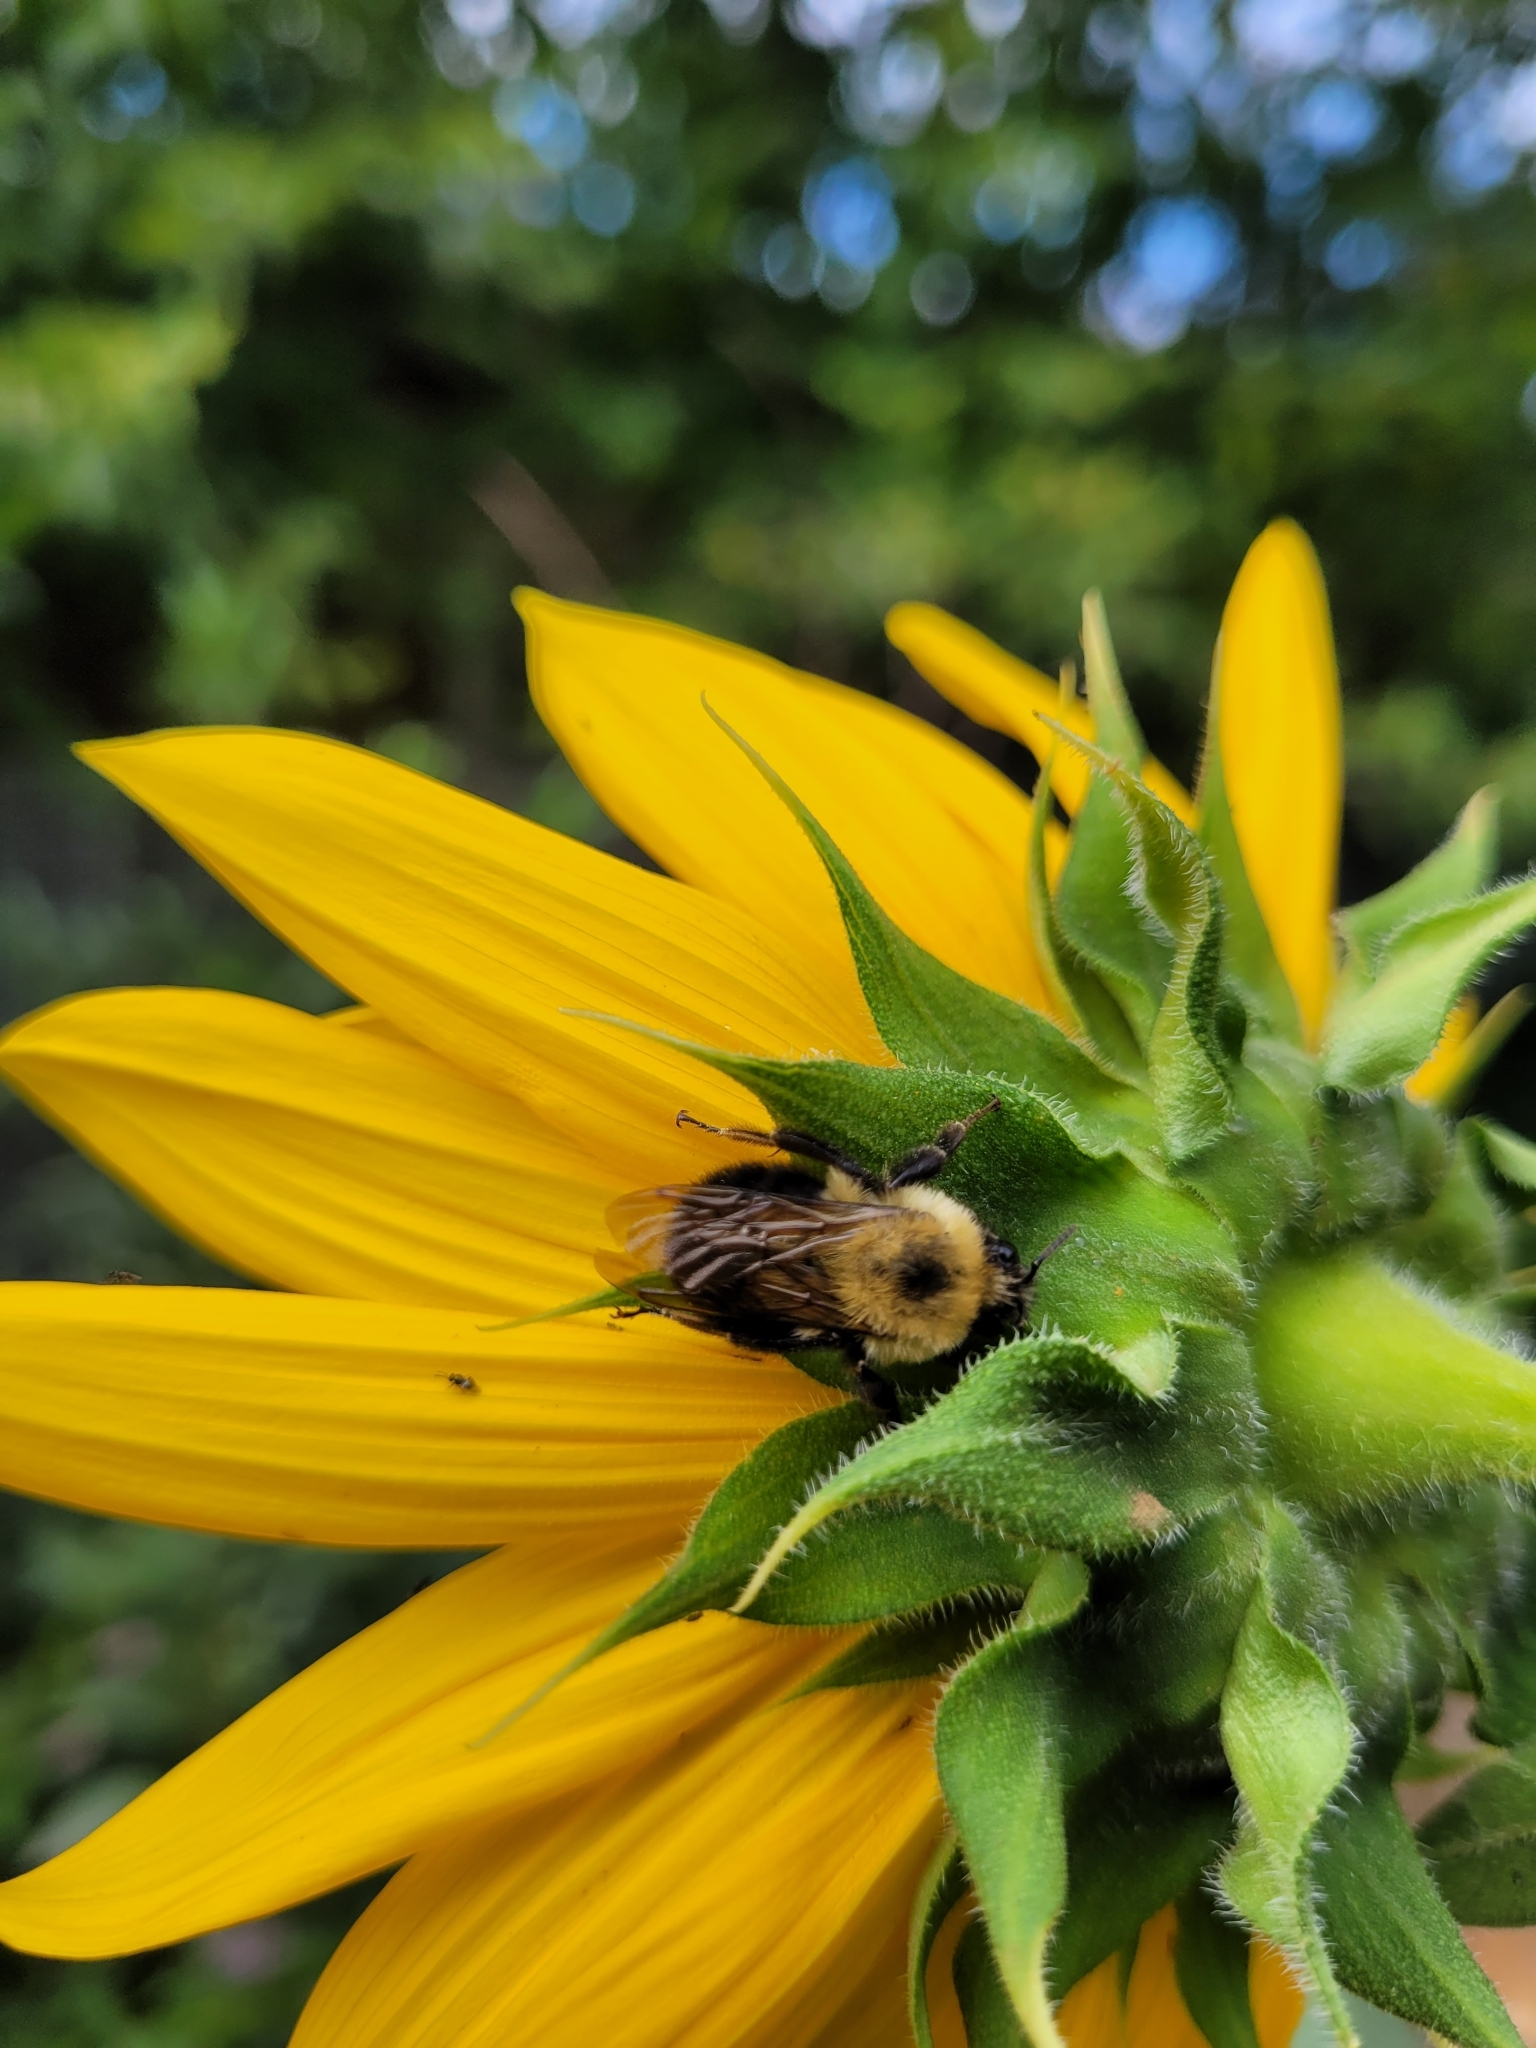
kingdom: Animalia
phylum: Arthropoda
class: Insecta
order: Hymenoptera
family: Apidae
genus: Bombus
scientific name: Bombus bimaculatus
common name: Two-spotted bumble bee
